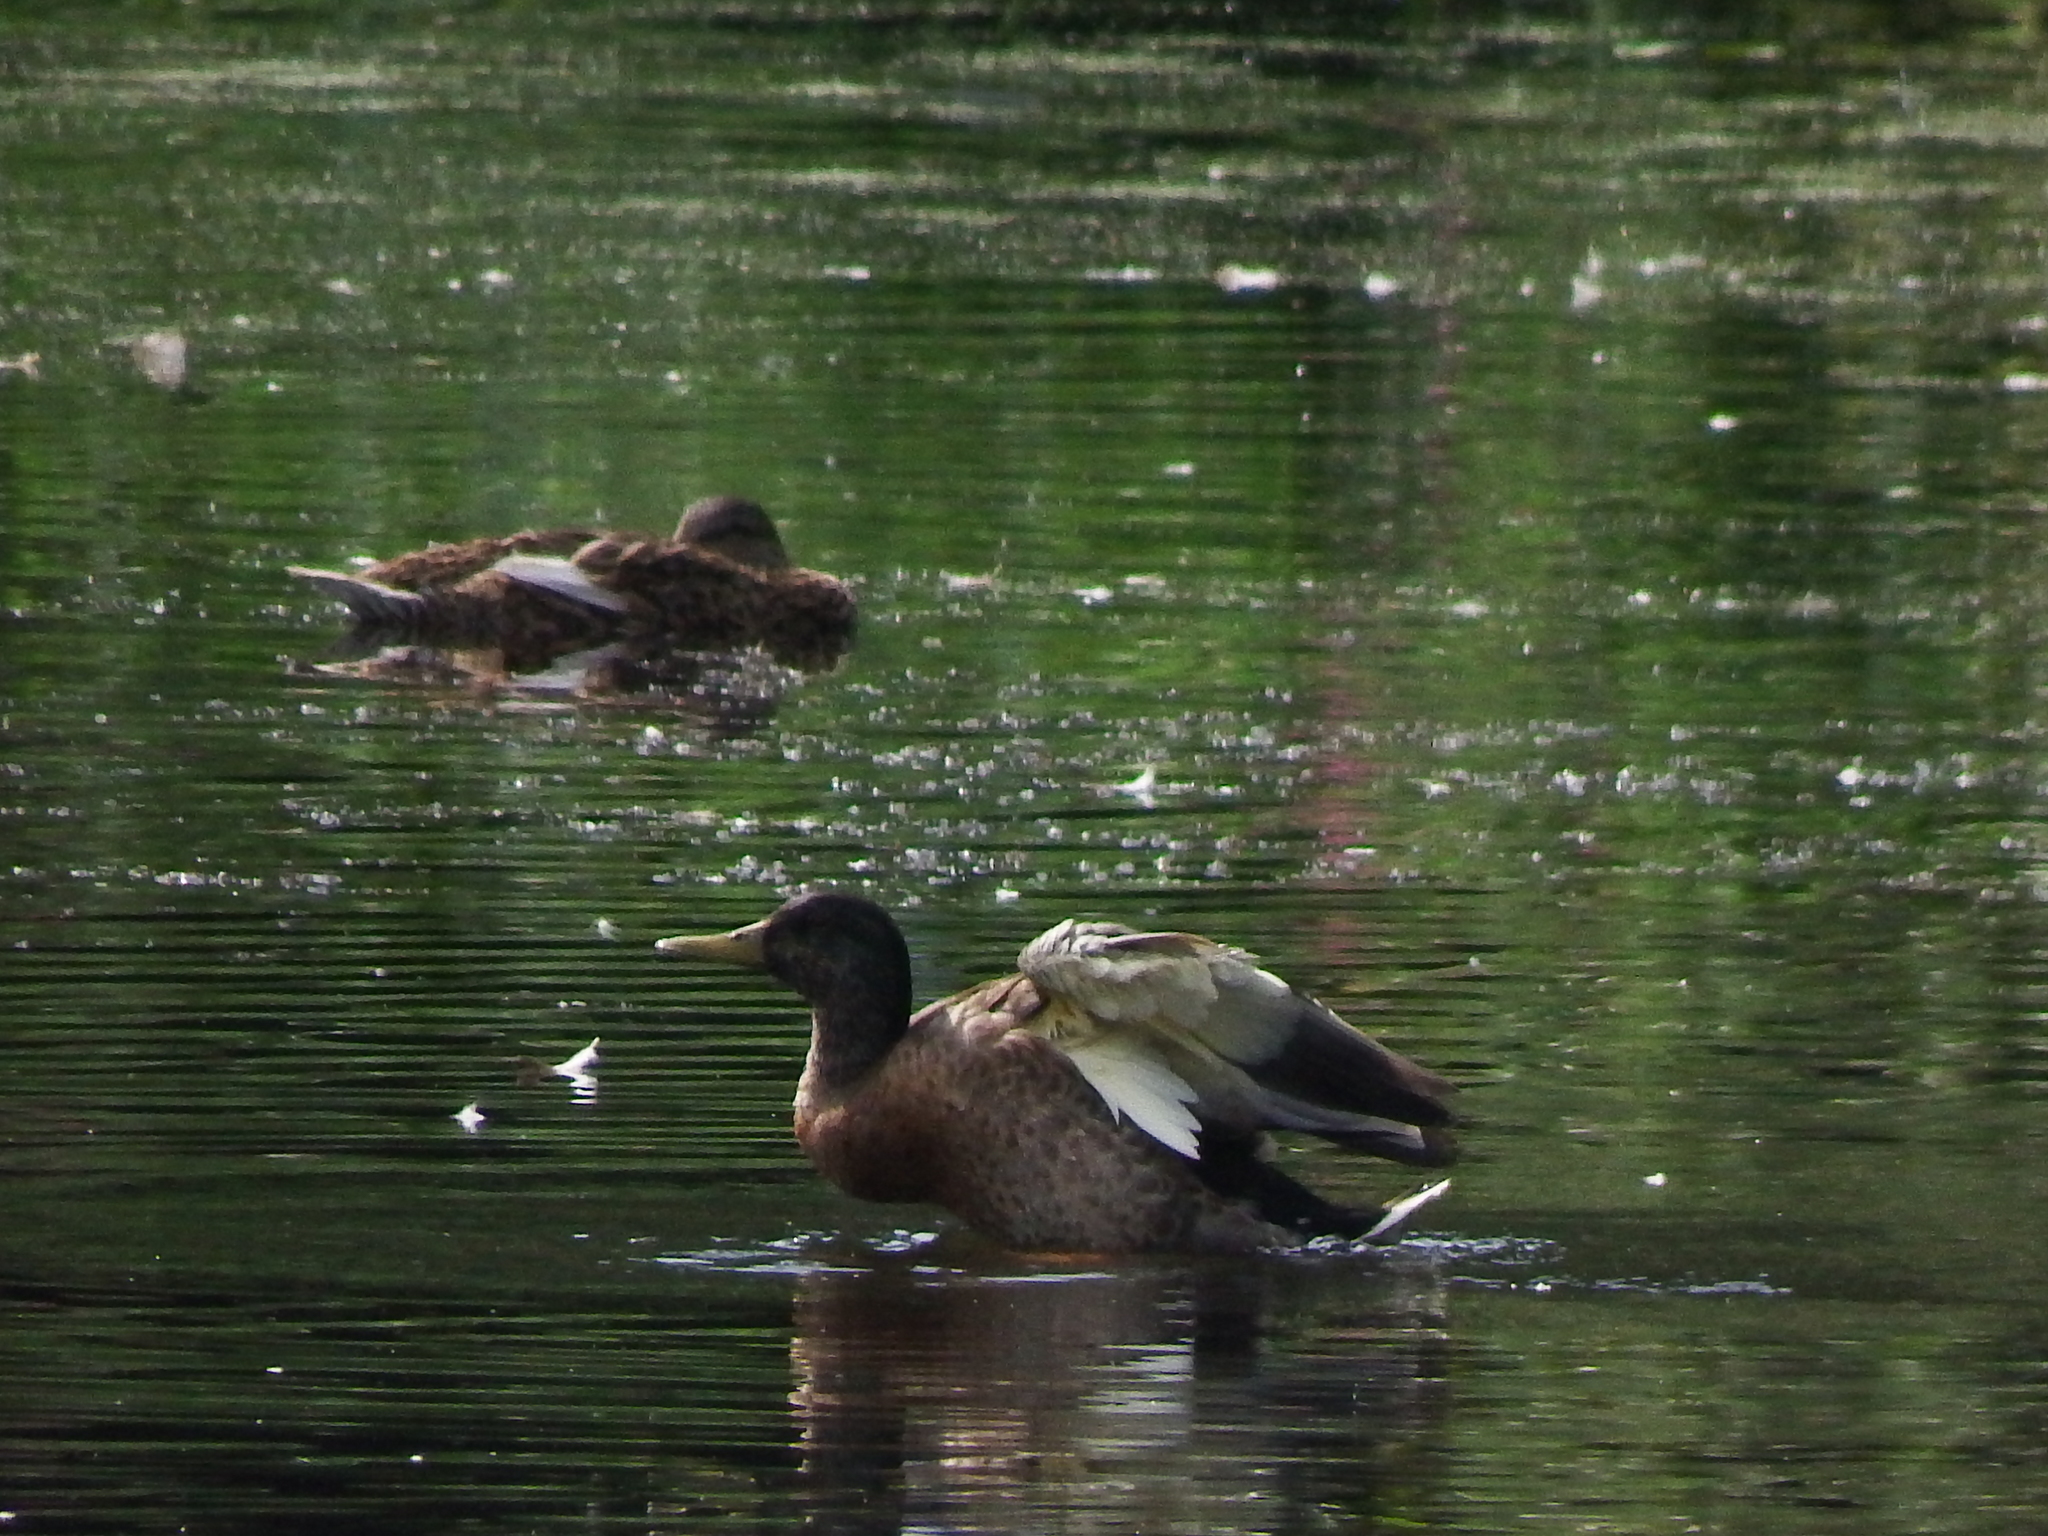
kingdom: Animalia
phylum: Chordata
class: Aves
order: Anseriformes
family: Anatidae
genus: Anas
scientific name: Anas platyrhynchos
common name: Mallard
